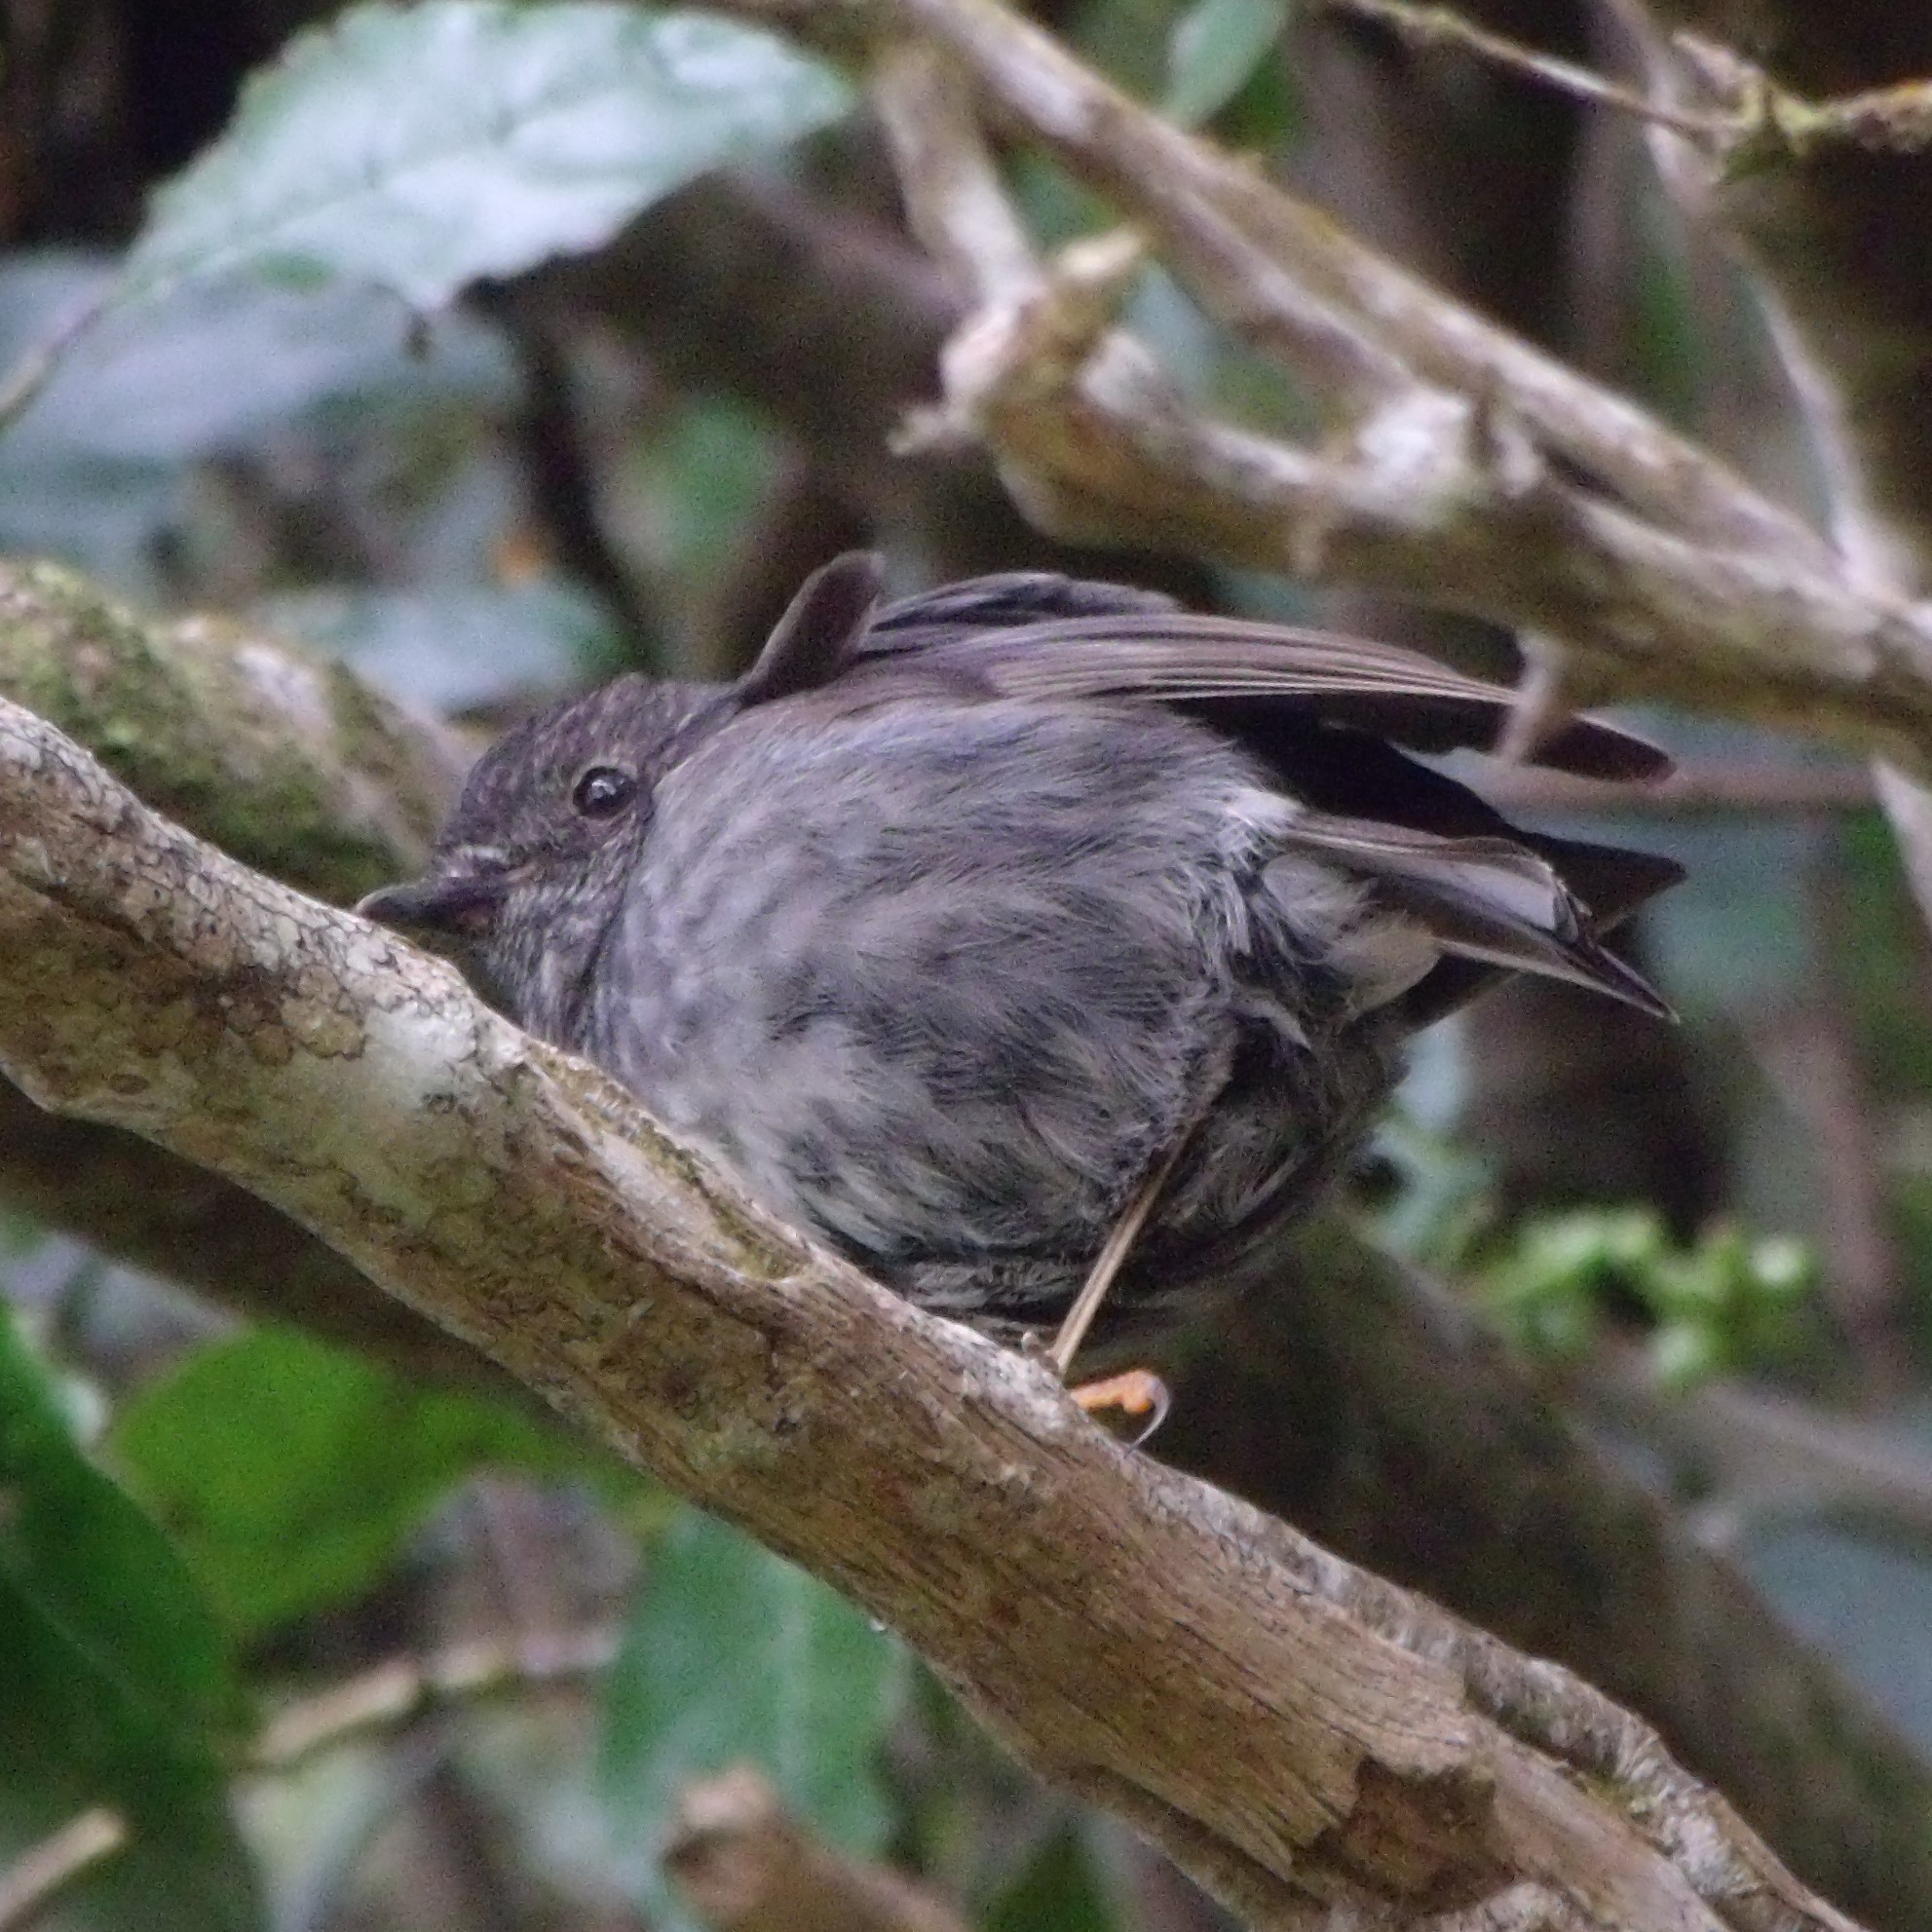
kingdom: Animalia
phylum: Chordata
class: Aves
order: Passeriformes
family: Petroicidae
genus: Petroica
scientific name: Petroica australis
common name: New zealand robin
